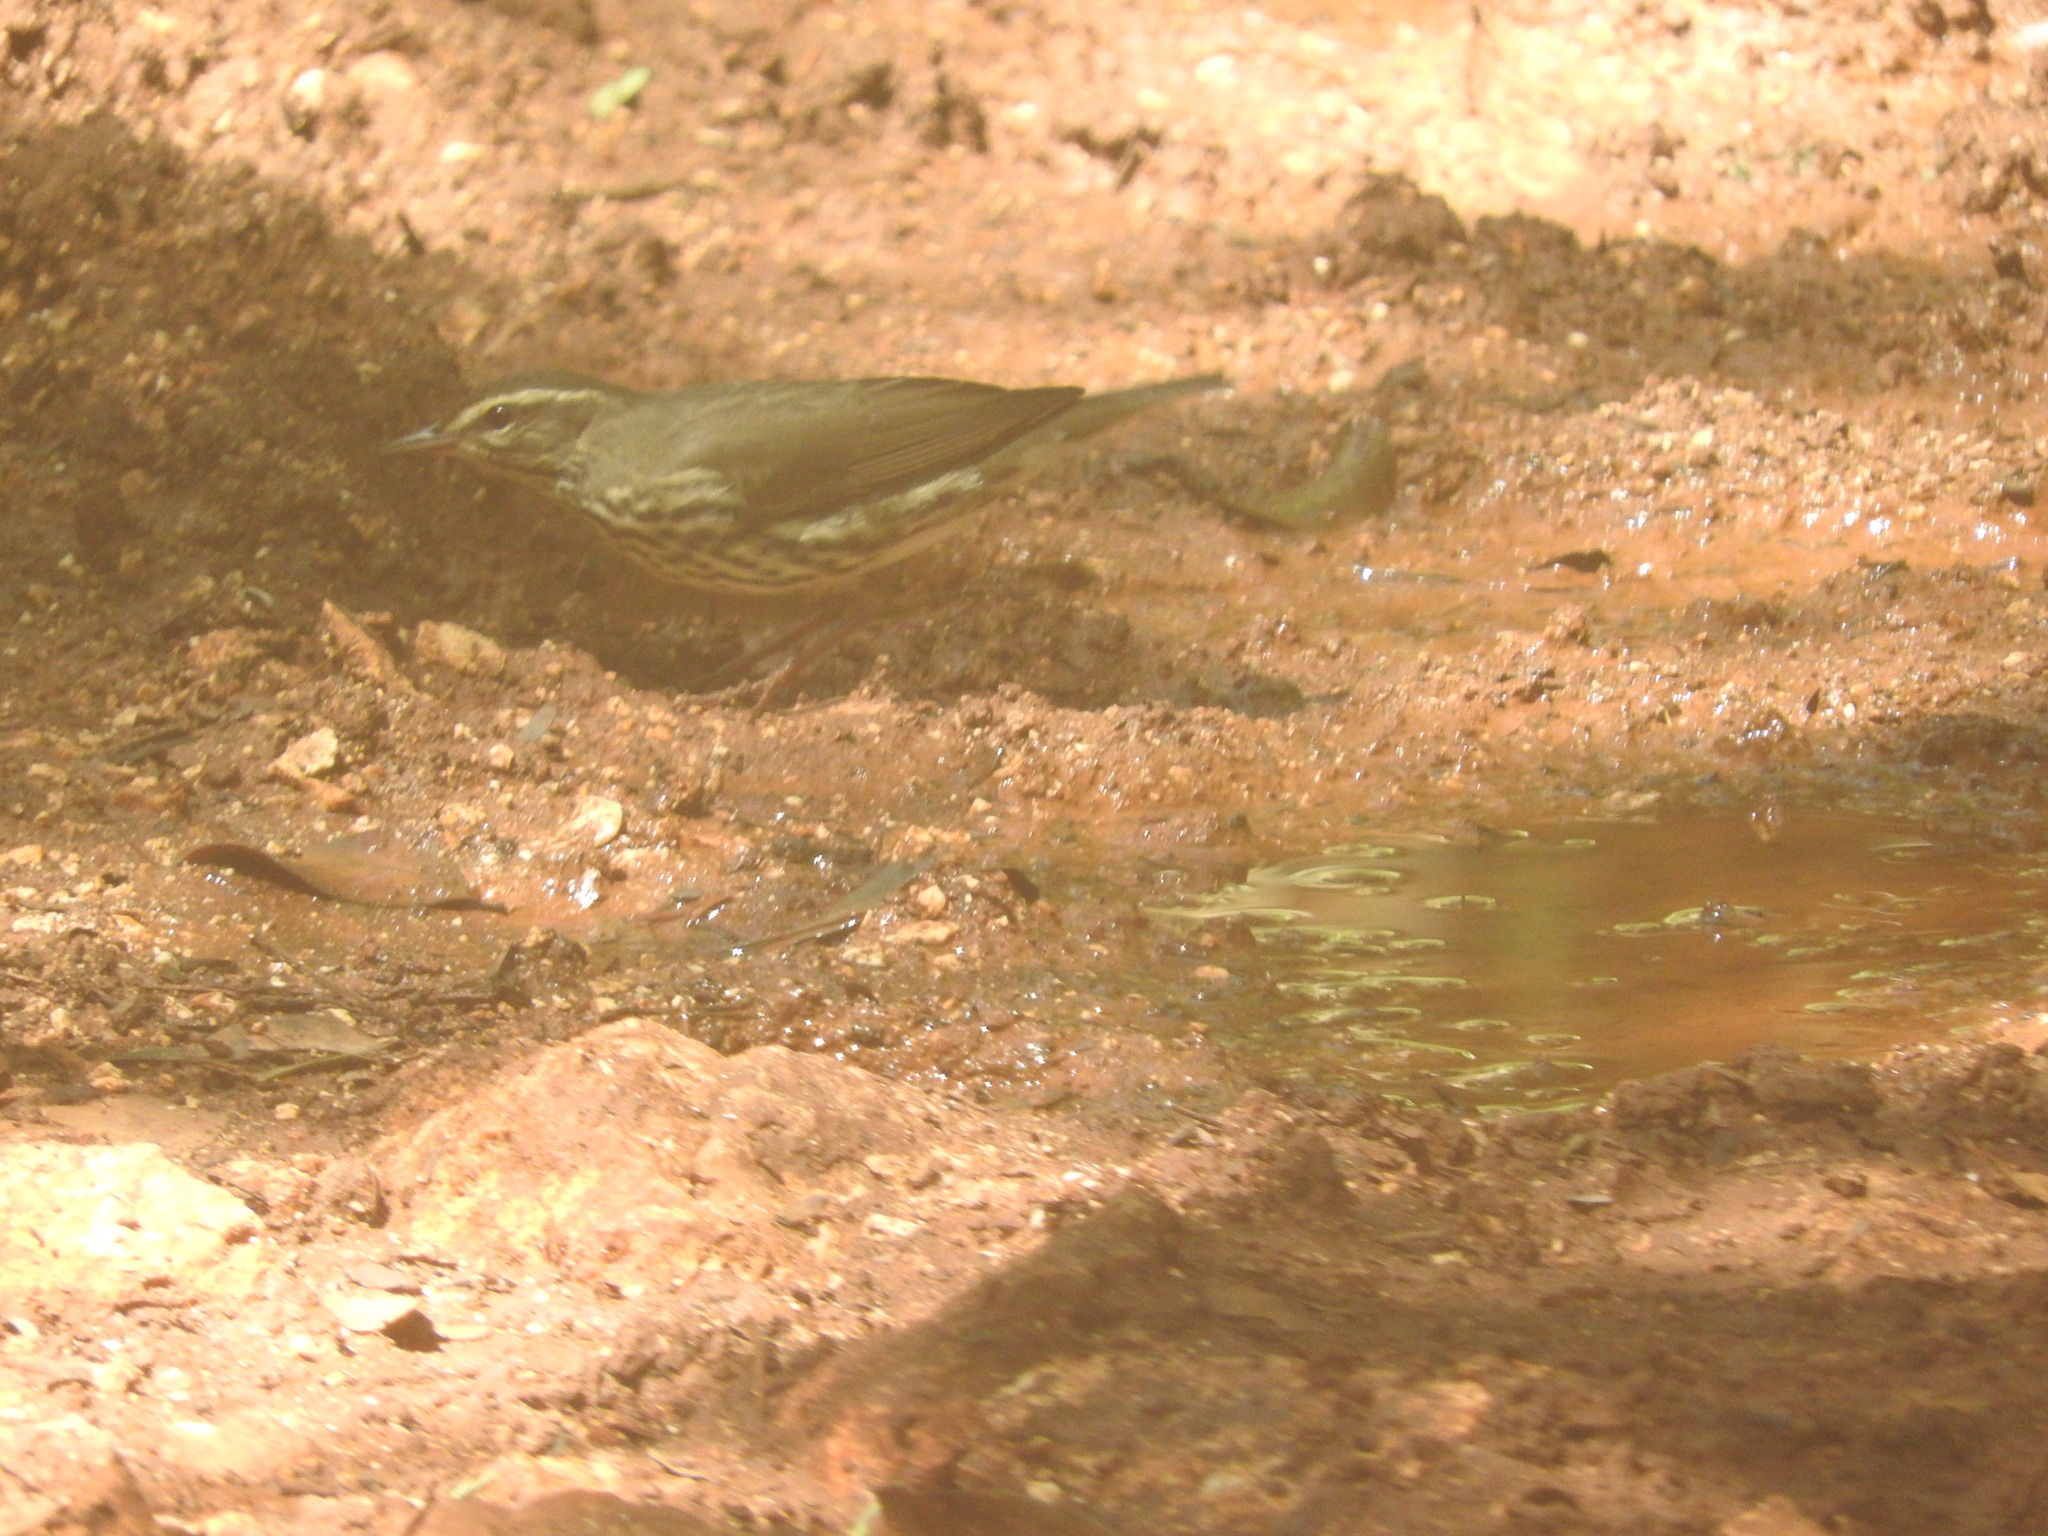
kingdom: Animalia
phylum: Chordata
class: Aves
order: Passeriformes
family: Parulidae
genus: Parkesia
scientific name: Parkesia noveboracensis
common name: Northern waterthrush
